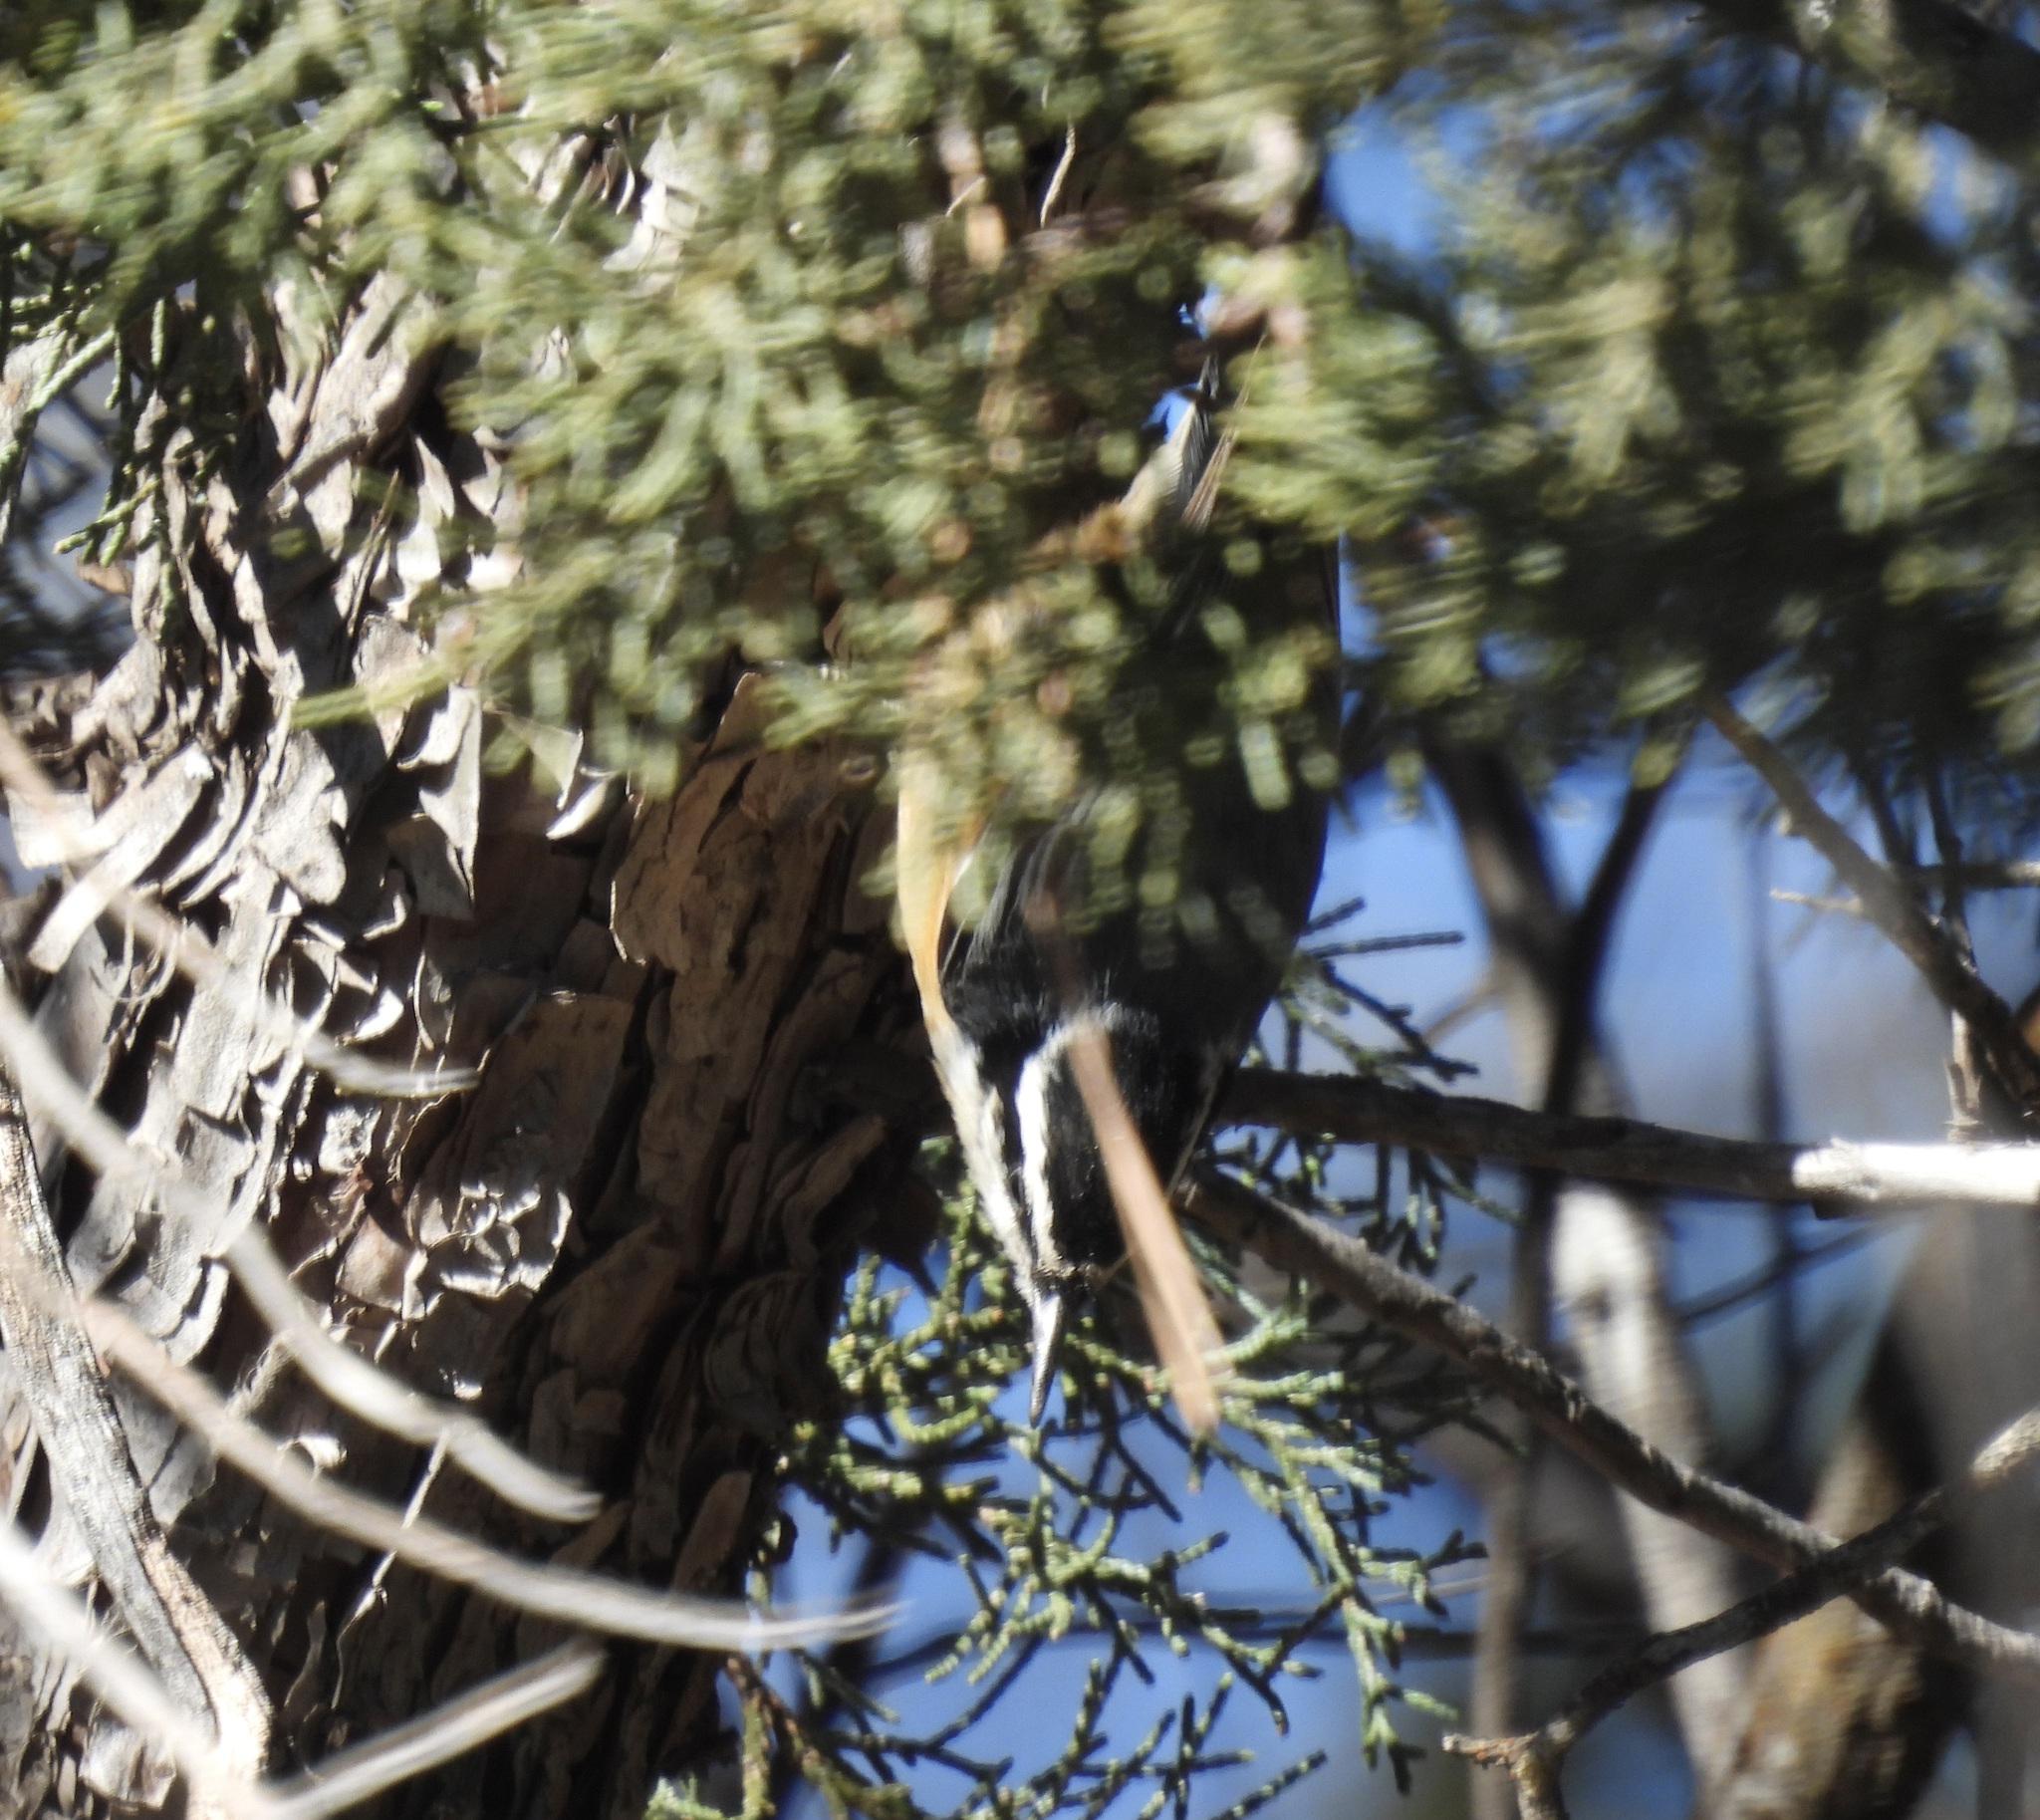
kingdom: Animalia
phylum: Chordata
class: Aves
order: Passeriformes
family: Sittidae
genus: Sitta
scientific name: Sitta canadensis
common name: Red-breasted nuthatch
